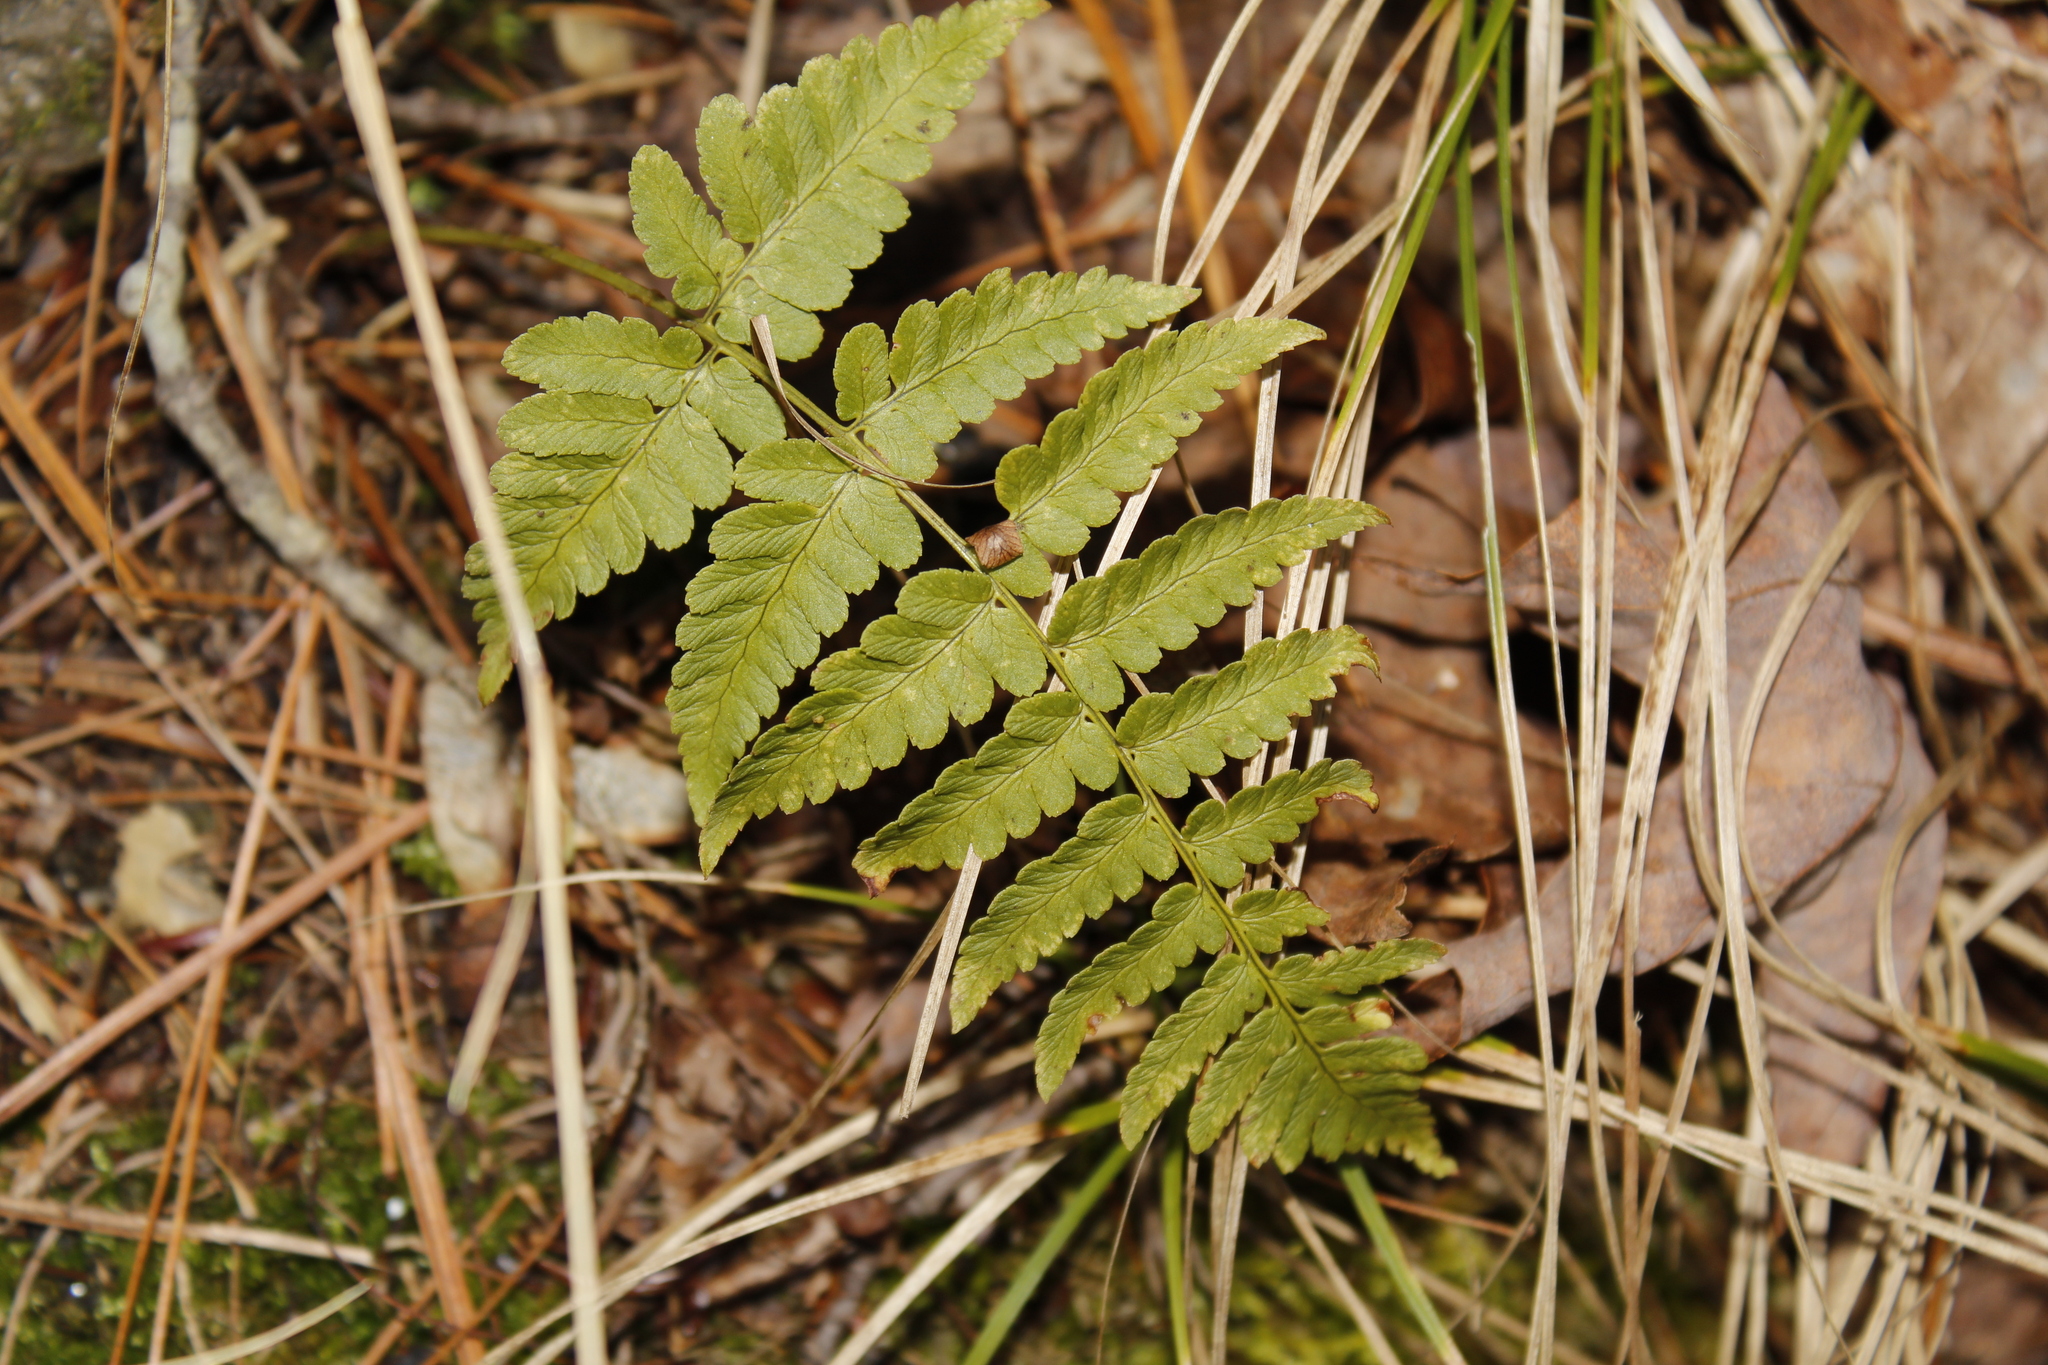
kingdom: Plantae
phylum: Tracheophyta
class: Polypodiopsida
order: Polypodiales
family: Dryopteridaceae
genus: Dryopteris
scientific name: Dryopteris marginalis
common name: Marginal wood fern
